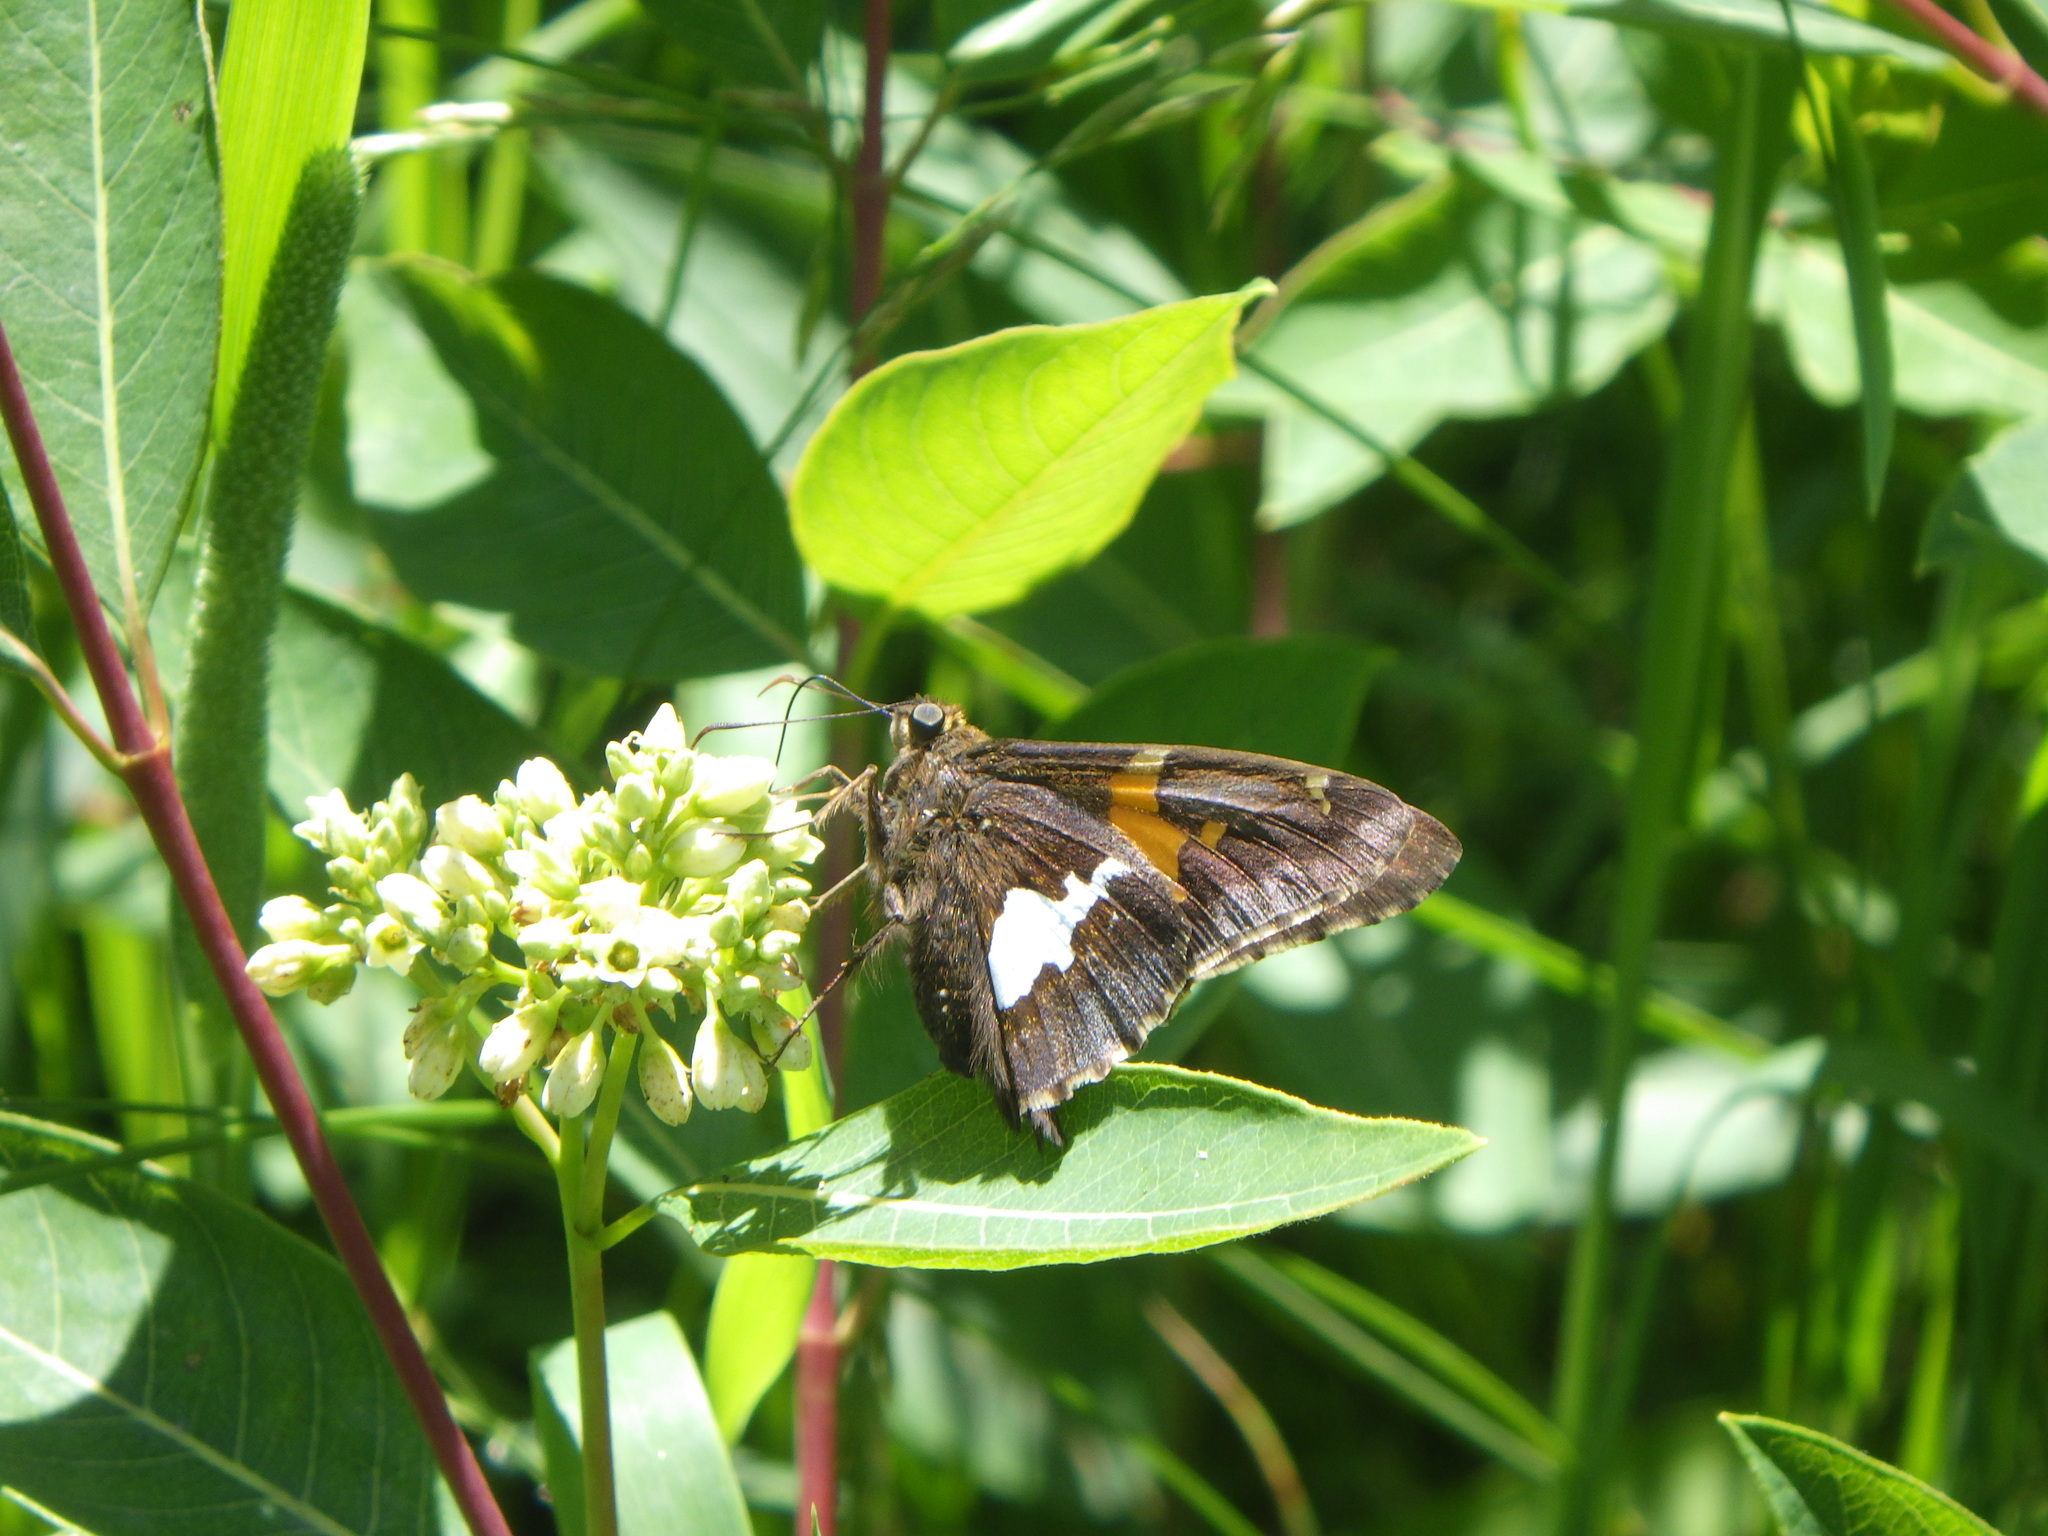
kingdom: Animalia
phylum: Arthropoda
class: Insecta
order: Lepidoptera
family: Hesperiidae
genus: Epargyreus
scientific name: Epargyreus clarus
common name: Silver-spotted skipper
